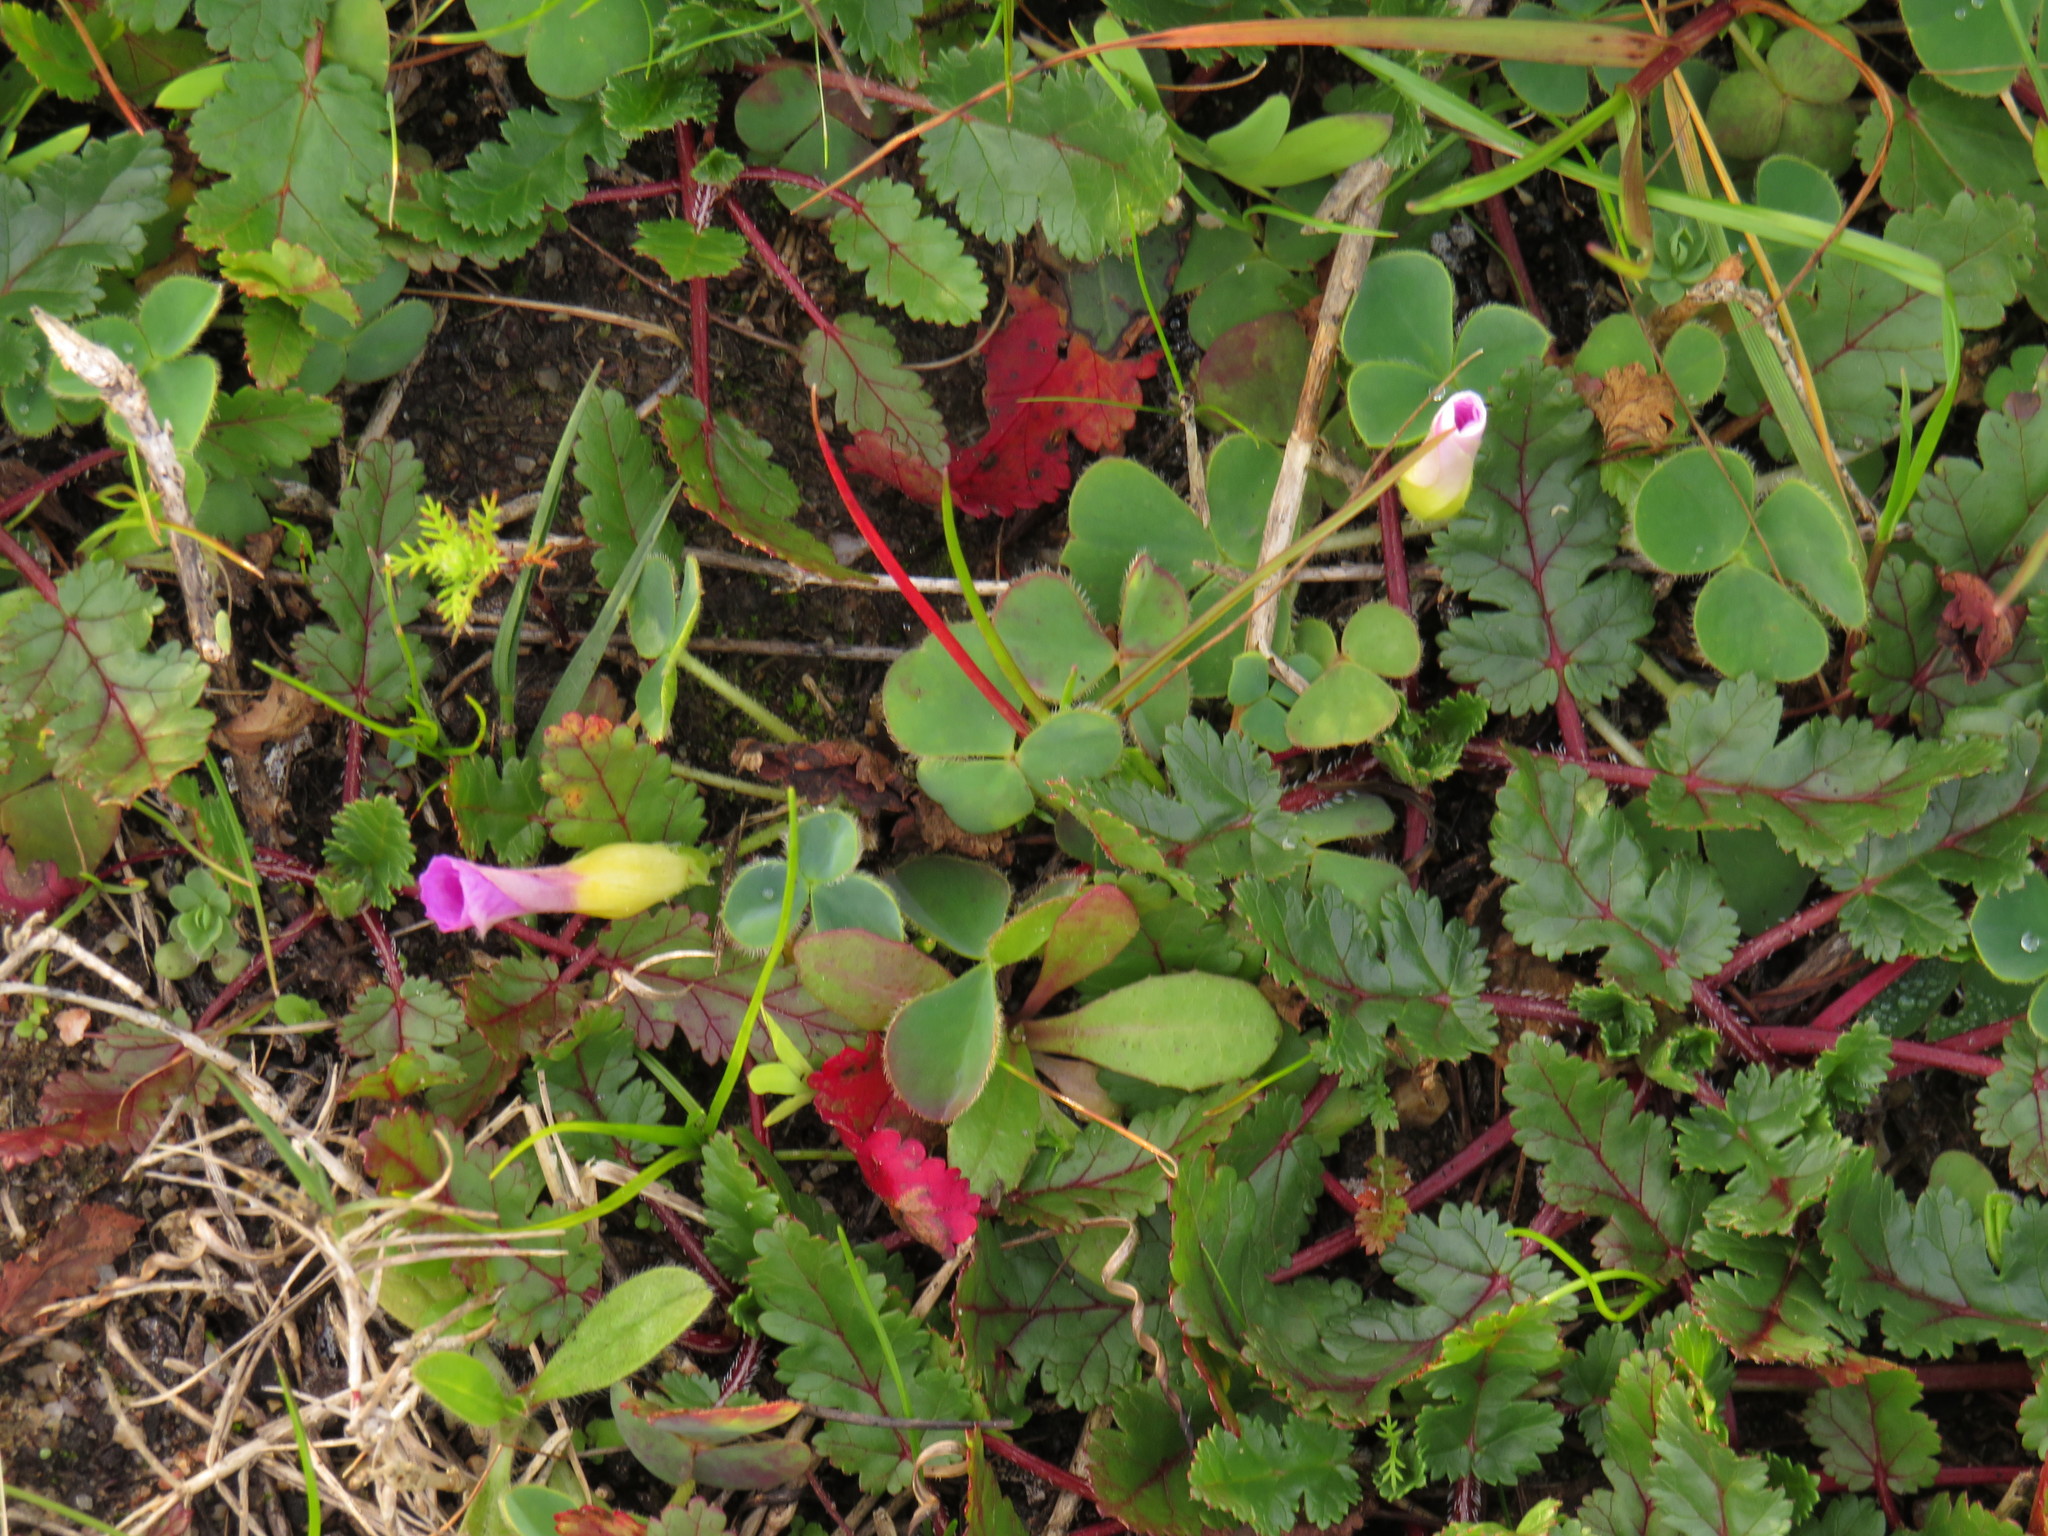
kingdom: Plantae
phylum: Tracheophyta
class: Magnoliopsida
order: Geraniales
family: Geraniaceae
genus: Erodium
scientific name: Erodium botrys
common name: Mediterranean stork's-bill
